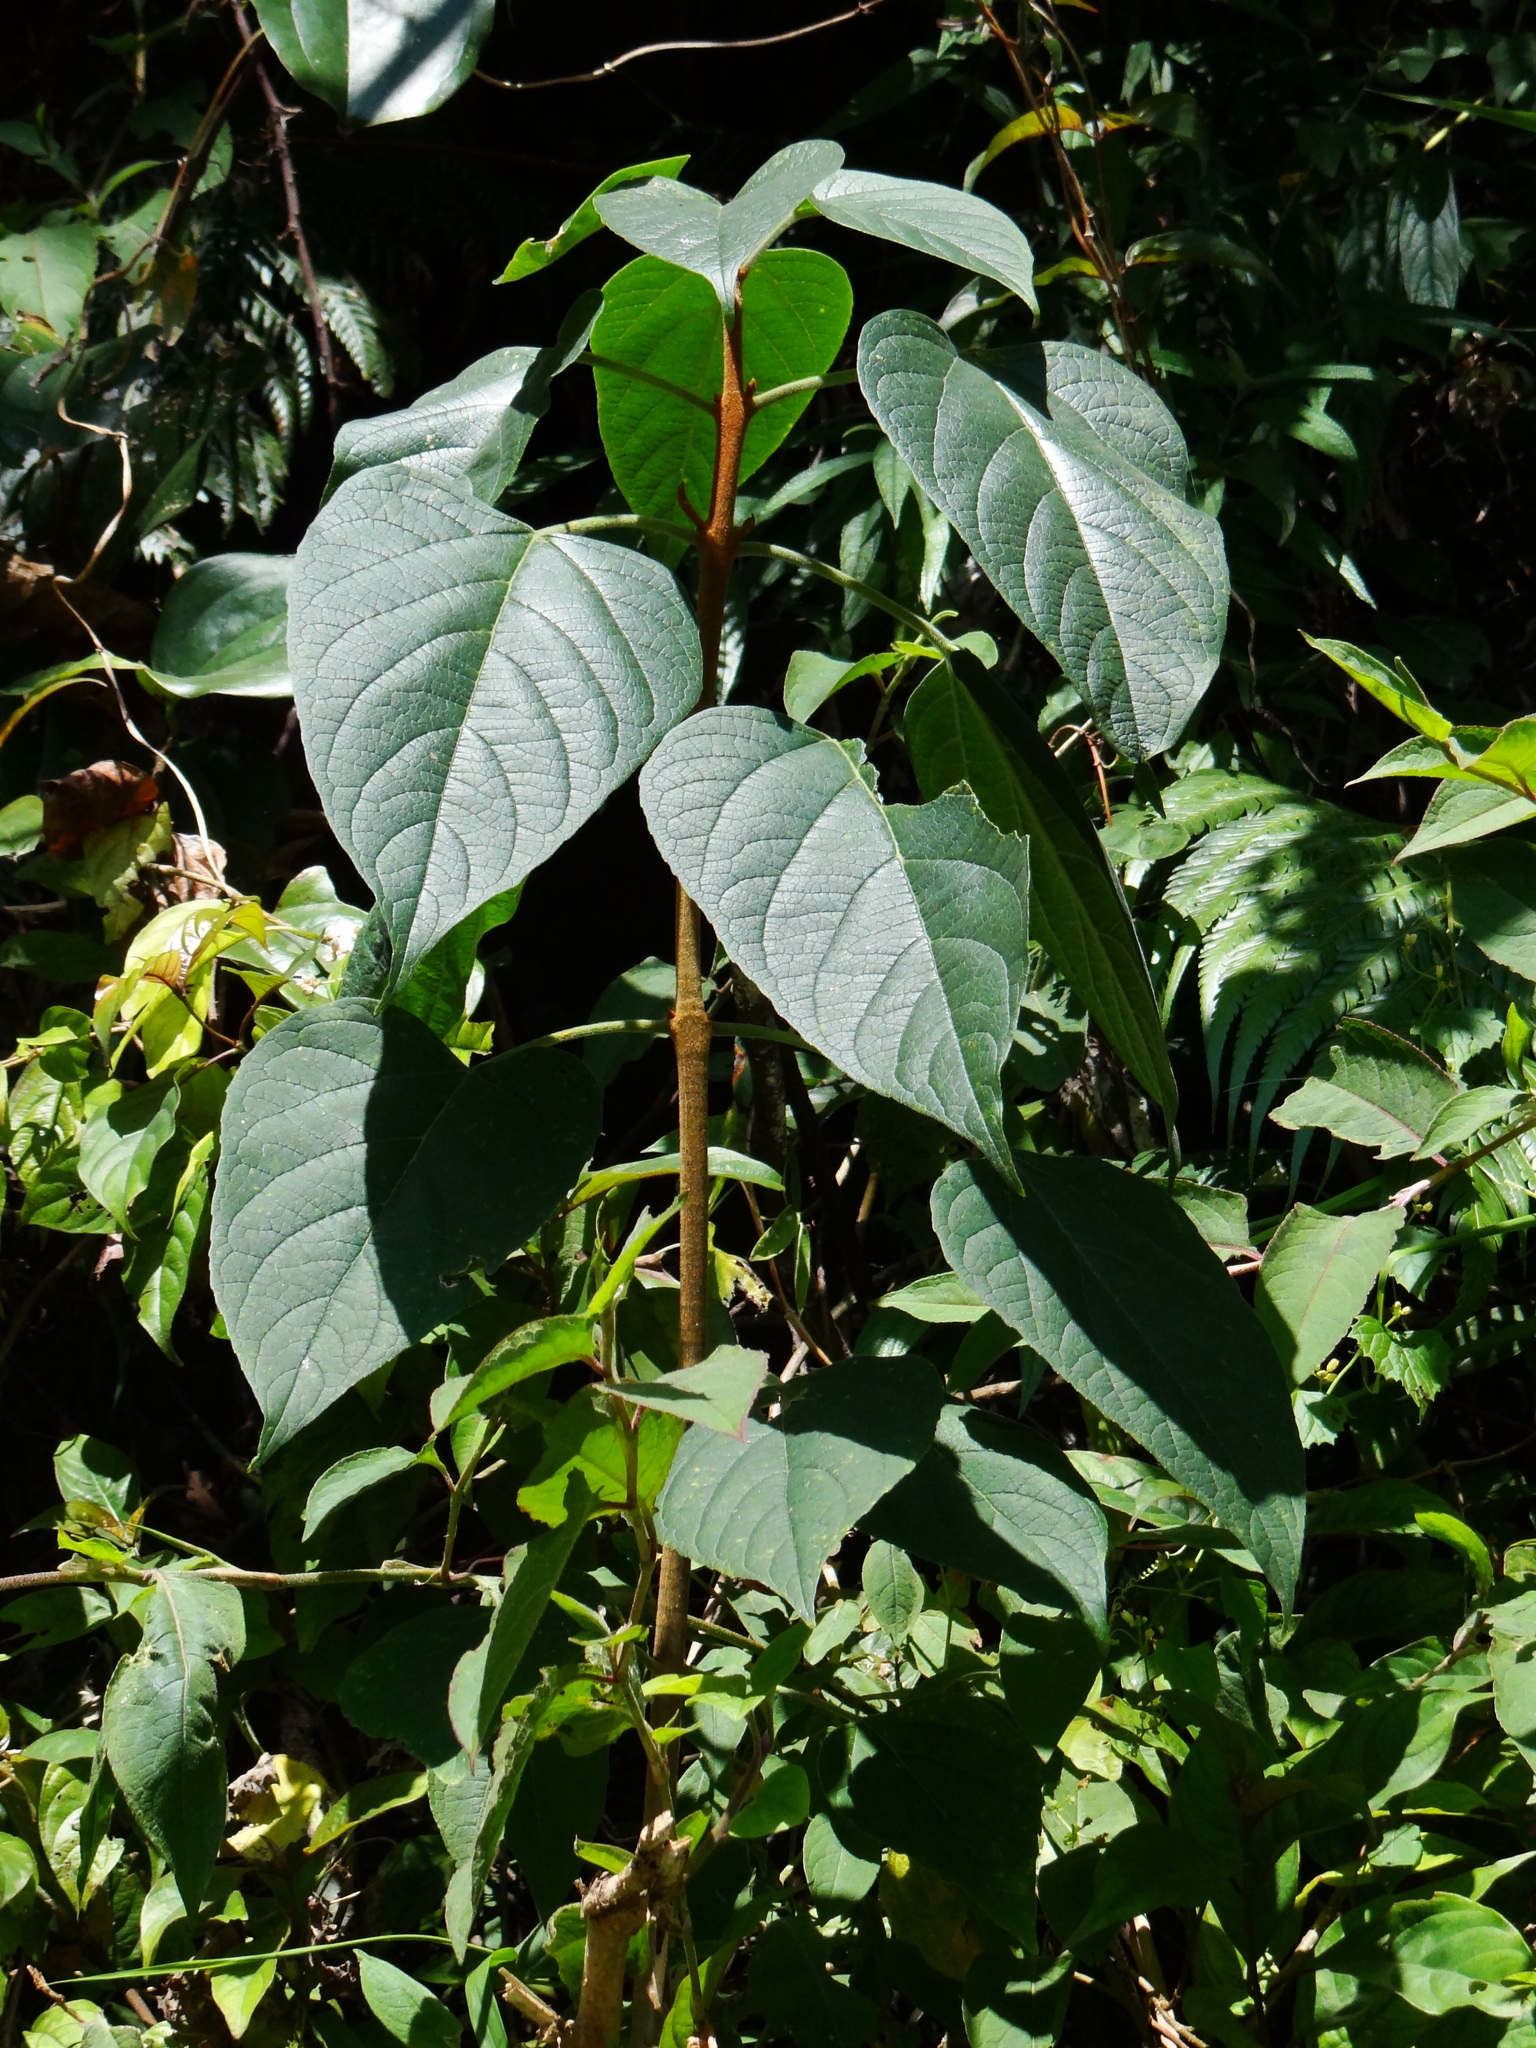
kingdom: Plantae
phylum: Tracheophyta
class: Magnoliopsida
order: Lamiales
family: Lamiaceae
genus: Clerodendrum
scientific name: Clerodendrum ohwii
